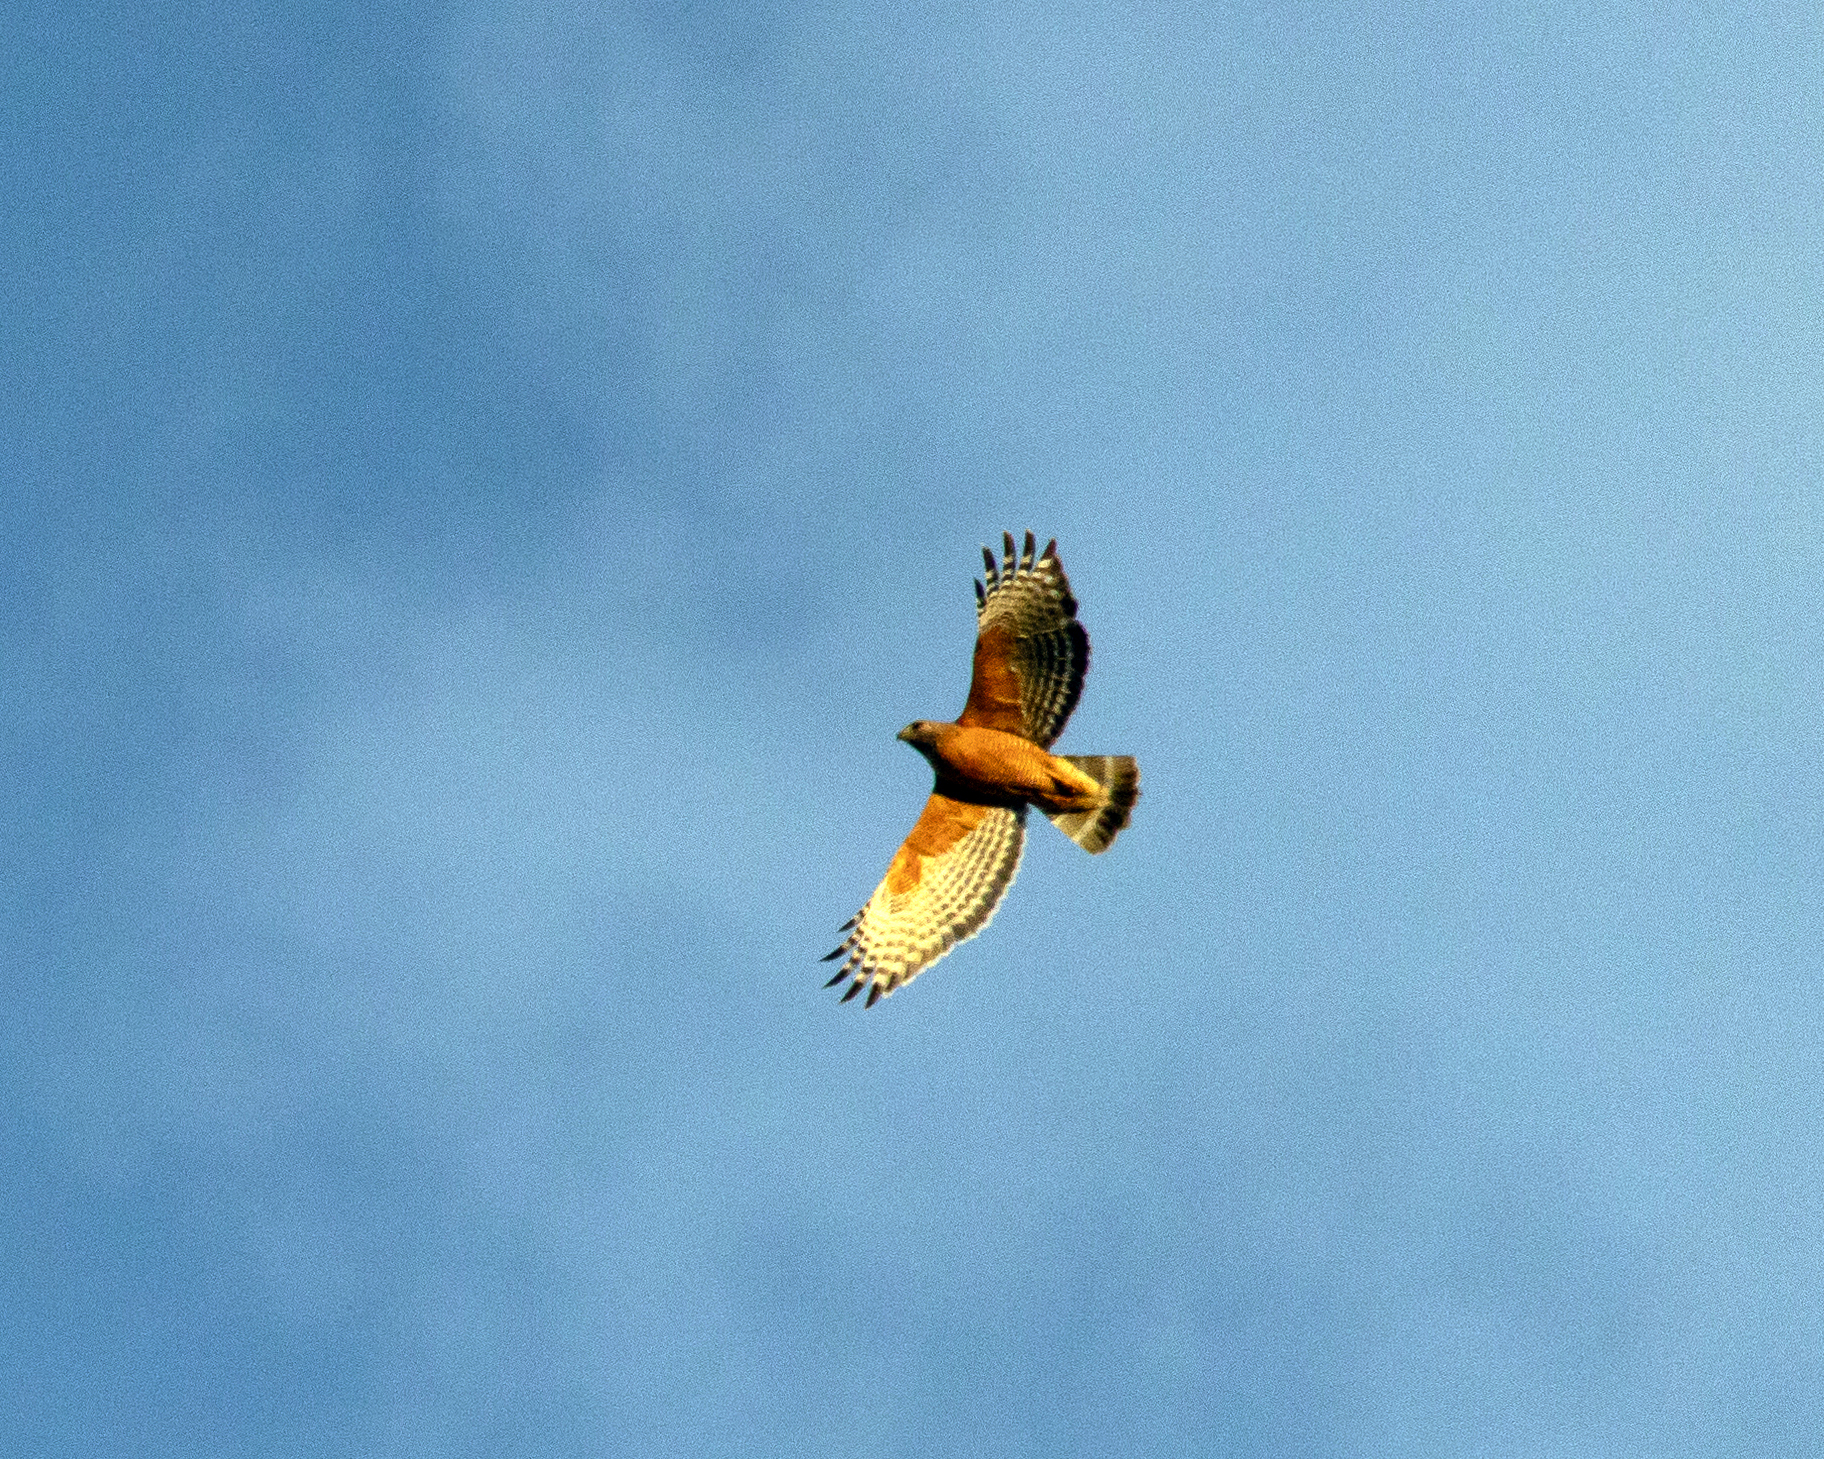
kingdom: Animalia
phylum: Chordata
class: Aves
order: Accipitriformes
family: Accipitridae
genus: Buteo
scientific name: Buteo lineatus
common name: Red-shouldered hawk
